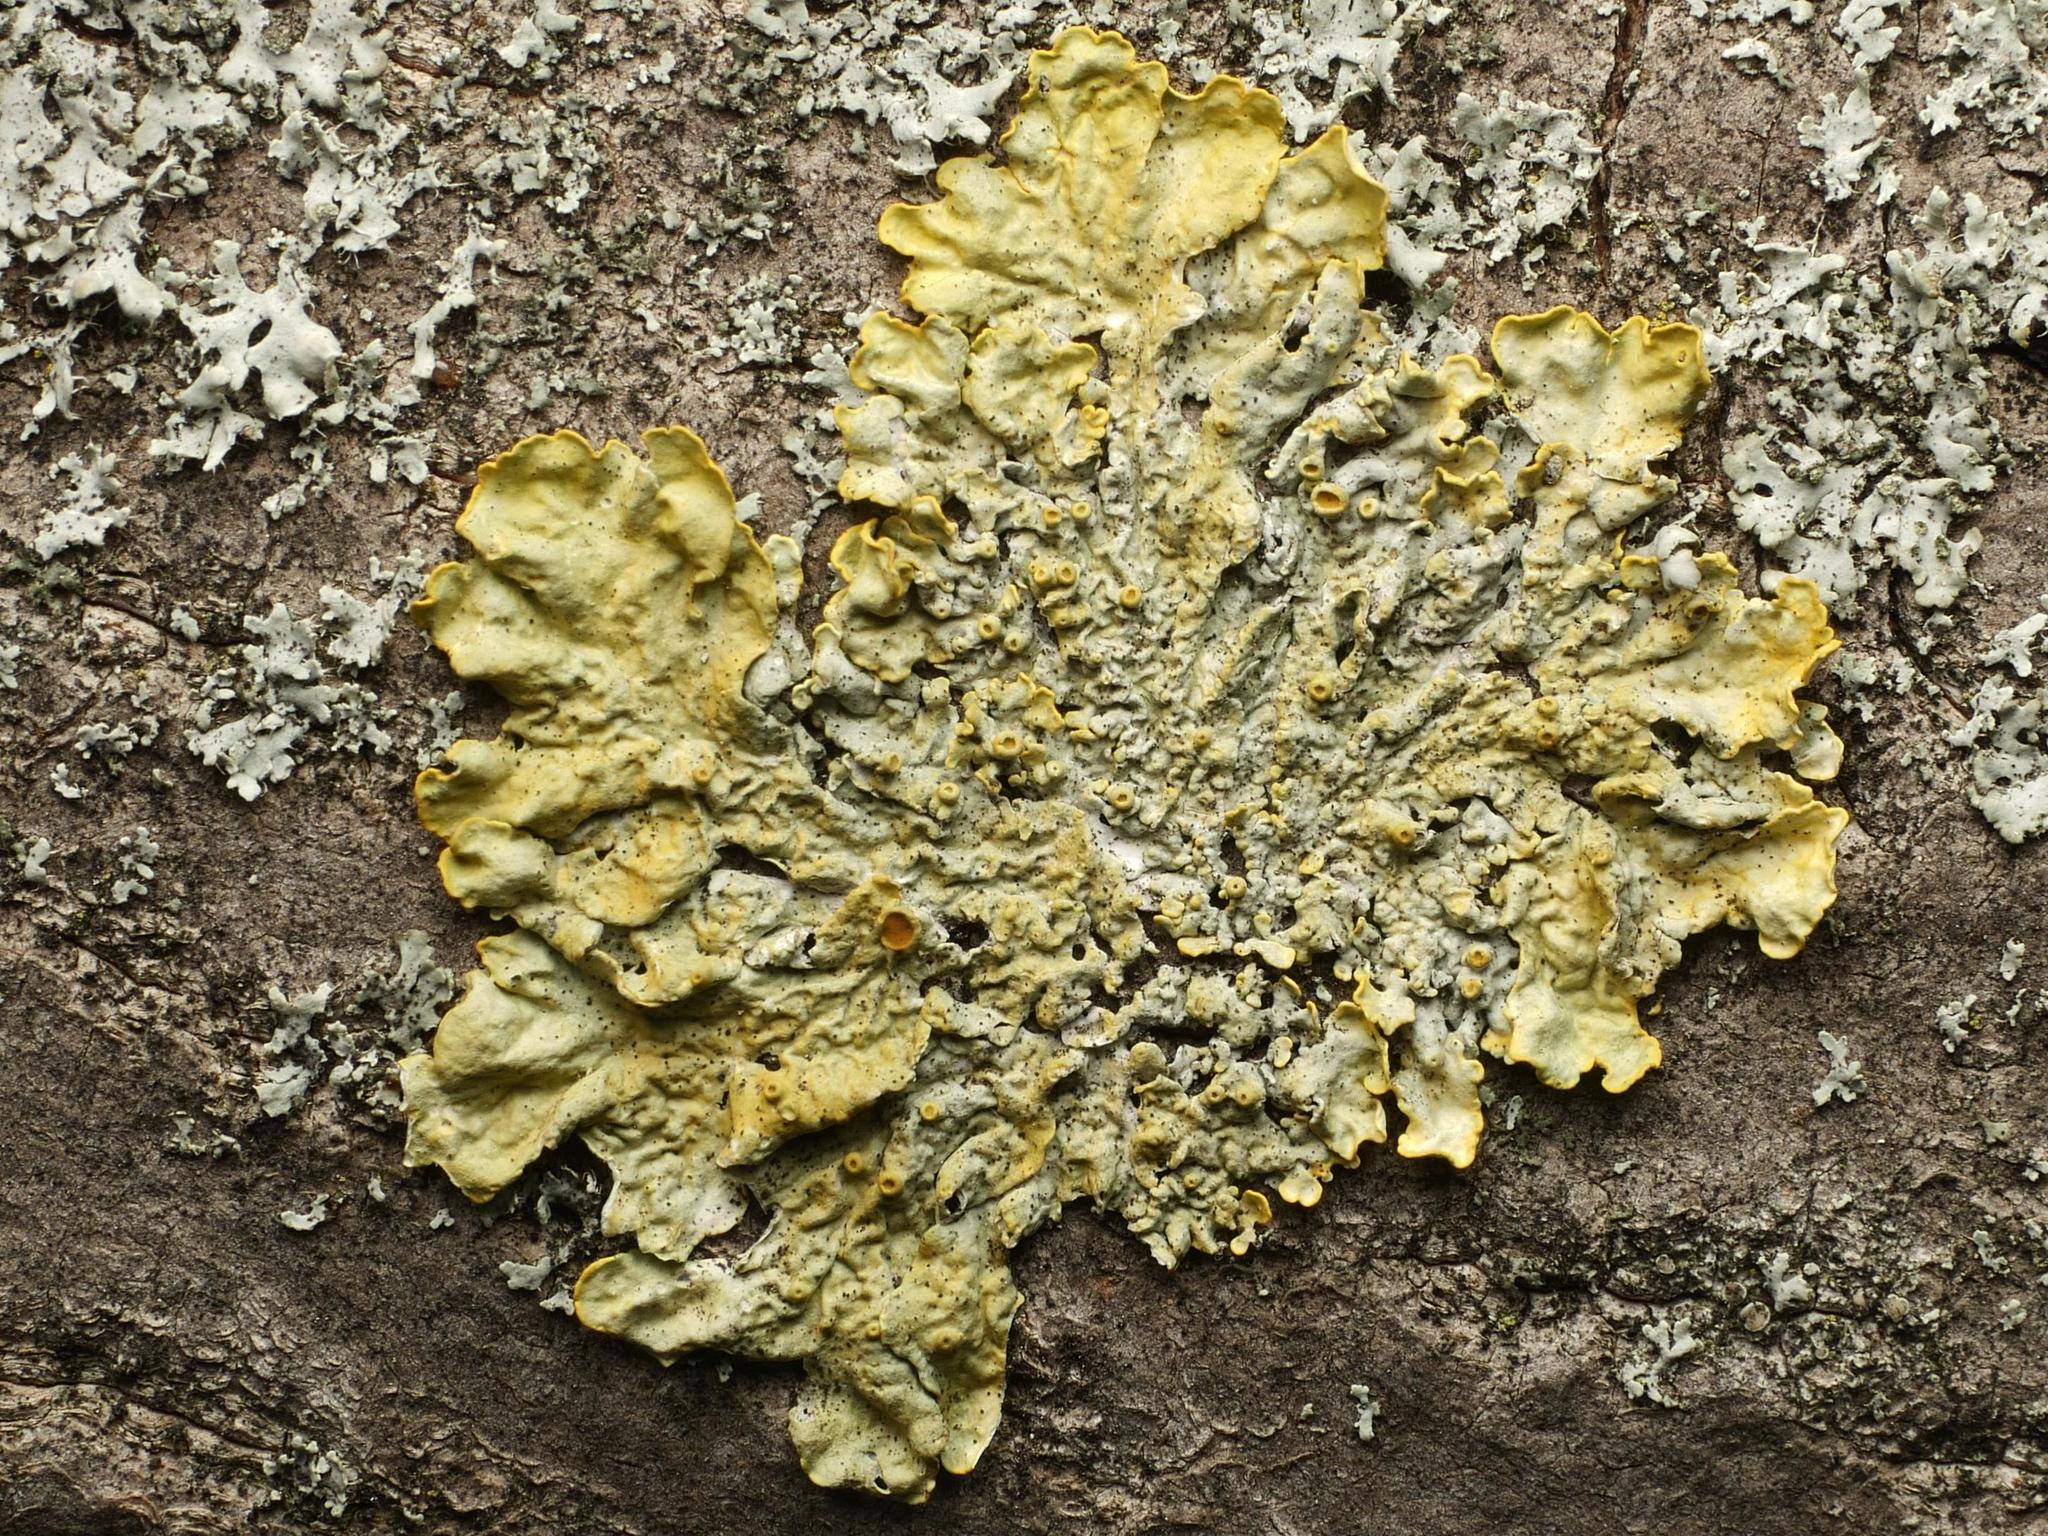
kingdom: Fungi
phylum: Ascomycota
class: Lecanoromycetes
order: Teloschistales
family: Teloschistaceae
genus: Xanthoria
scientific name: Xanthoria parietina
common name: Common orange lichen
